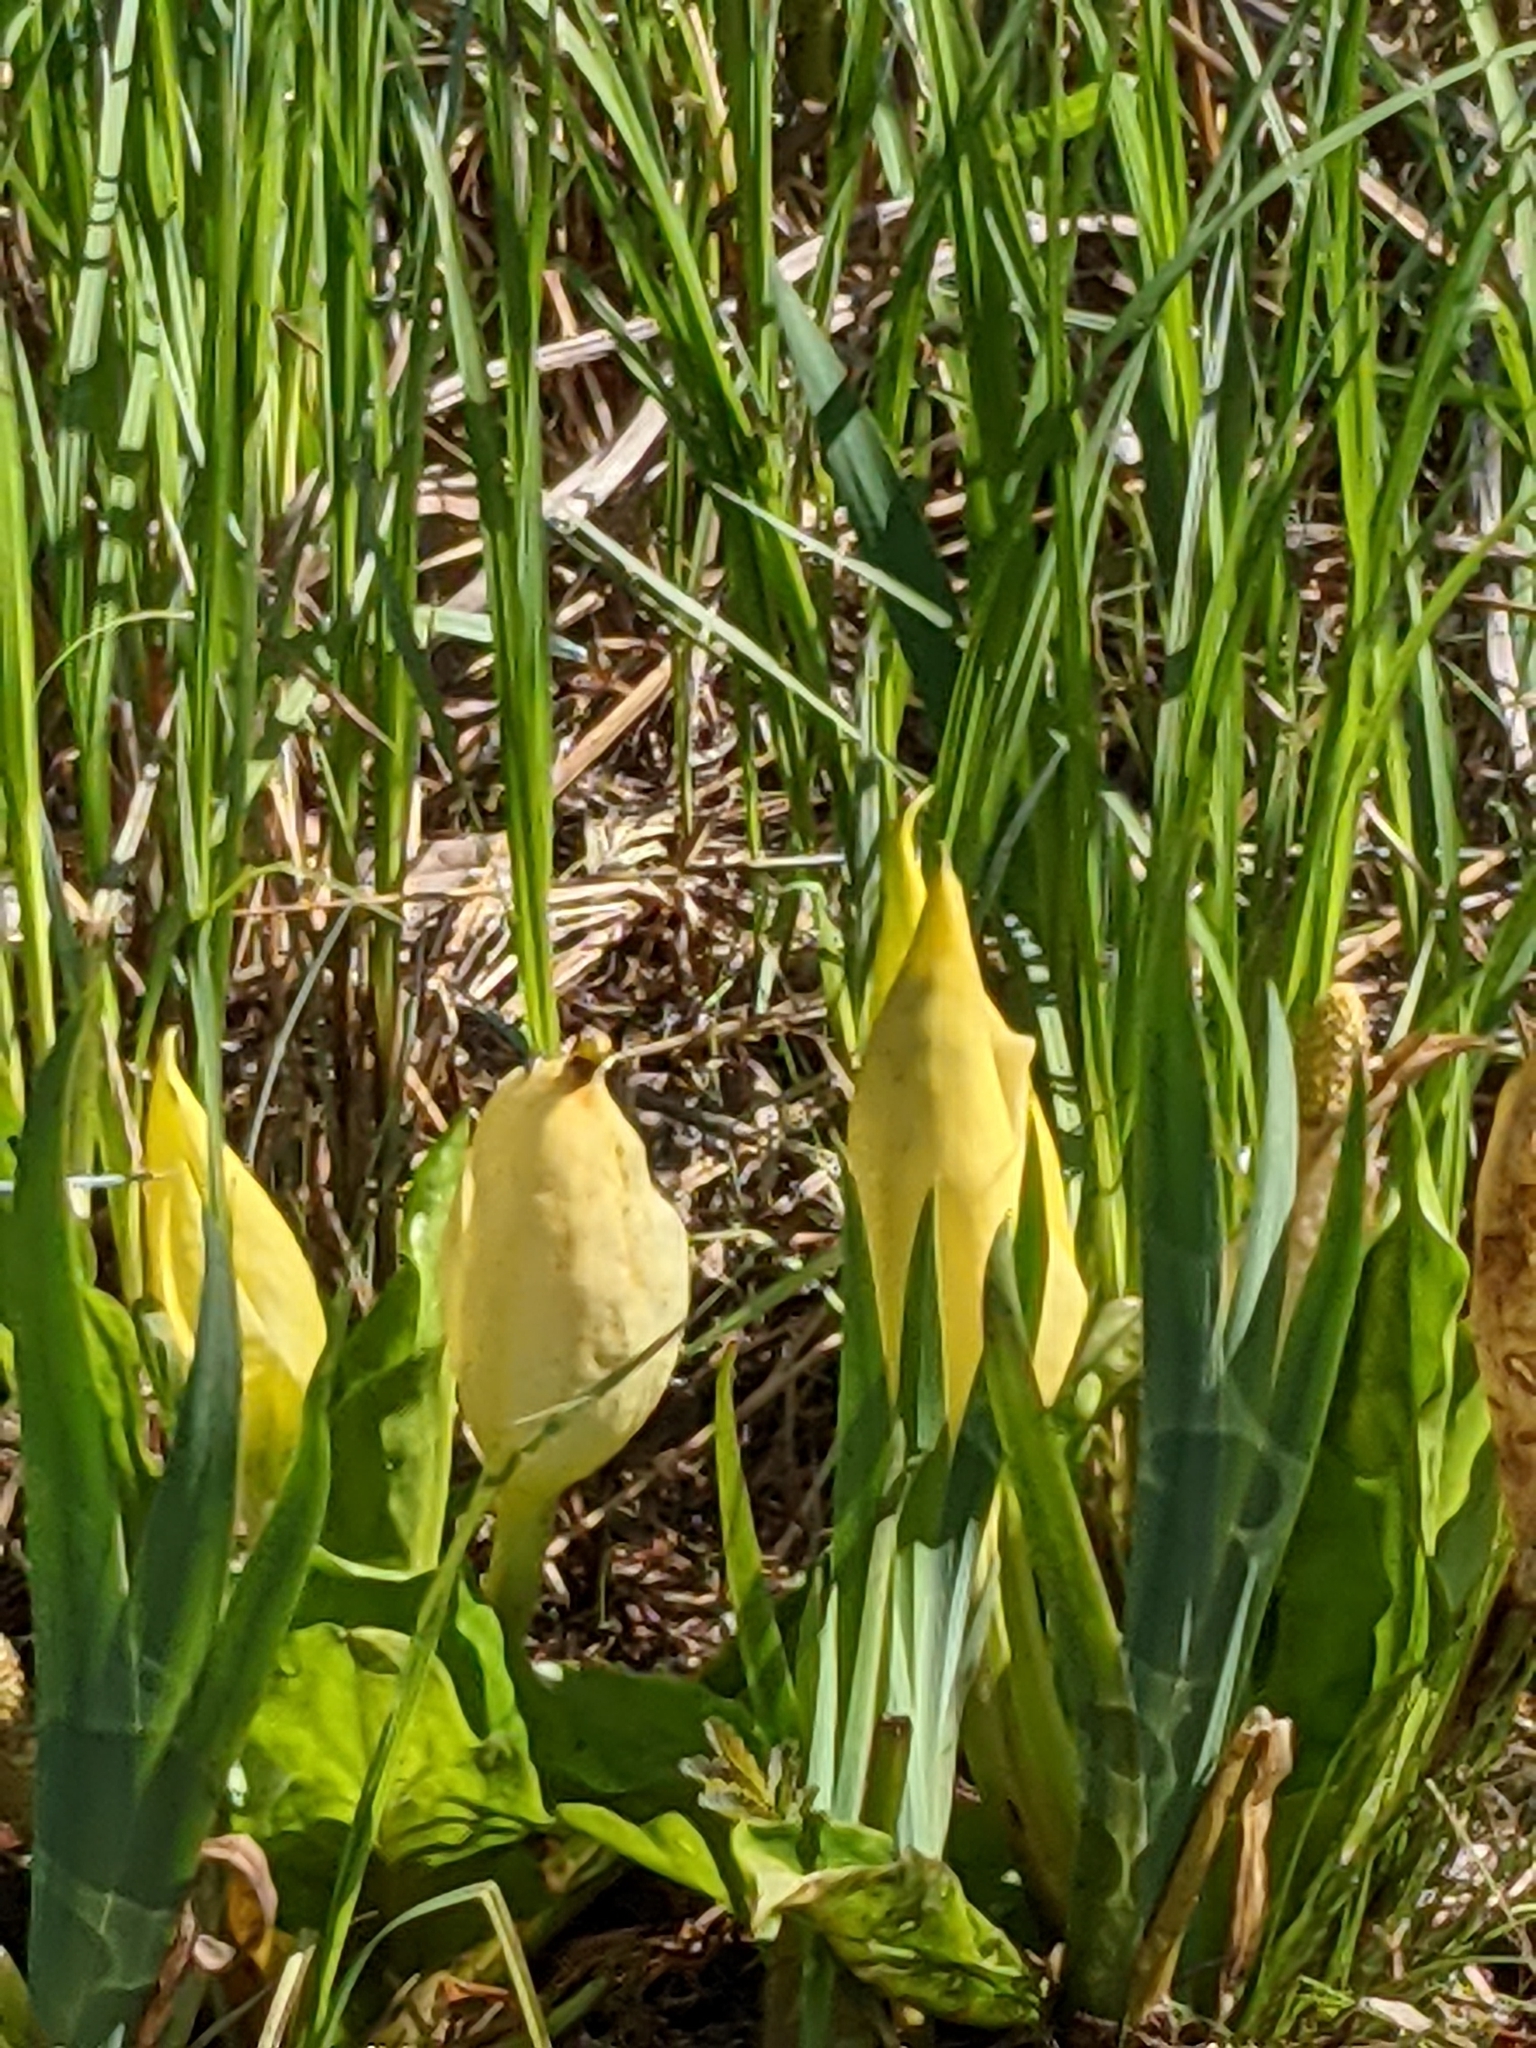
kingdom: Plantae
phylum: Tracheophyta
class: Liliopsida
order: Alismatales
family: Araceae
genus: Lysichiton
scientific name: Lysichiton americanus
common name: American skunk cabbage
